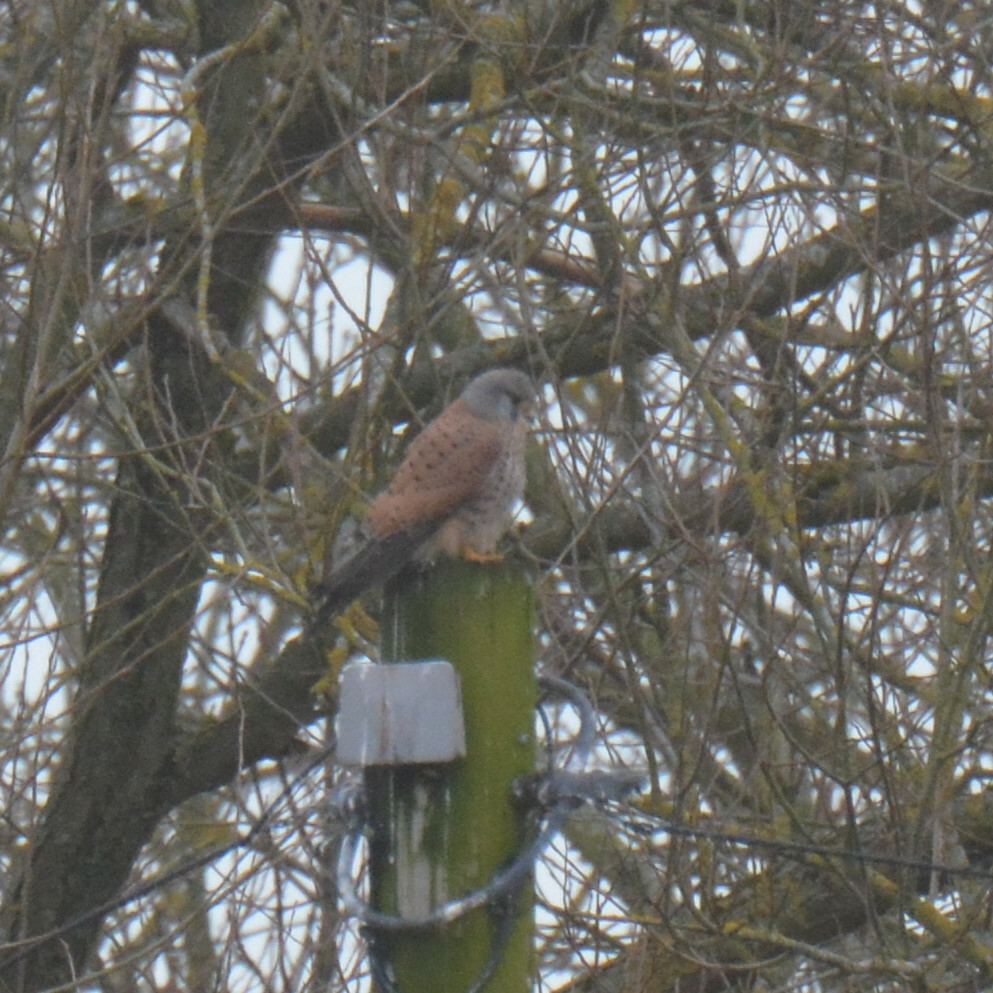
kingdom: Animalia
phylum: Chordata
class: Aves
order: Falconiformes
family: Falconidae
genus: Falco
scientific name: Falco tinnunculus
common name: Common kestrel
